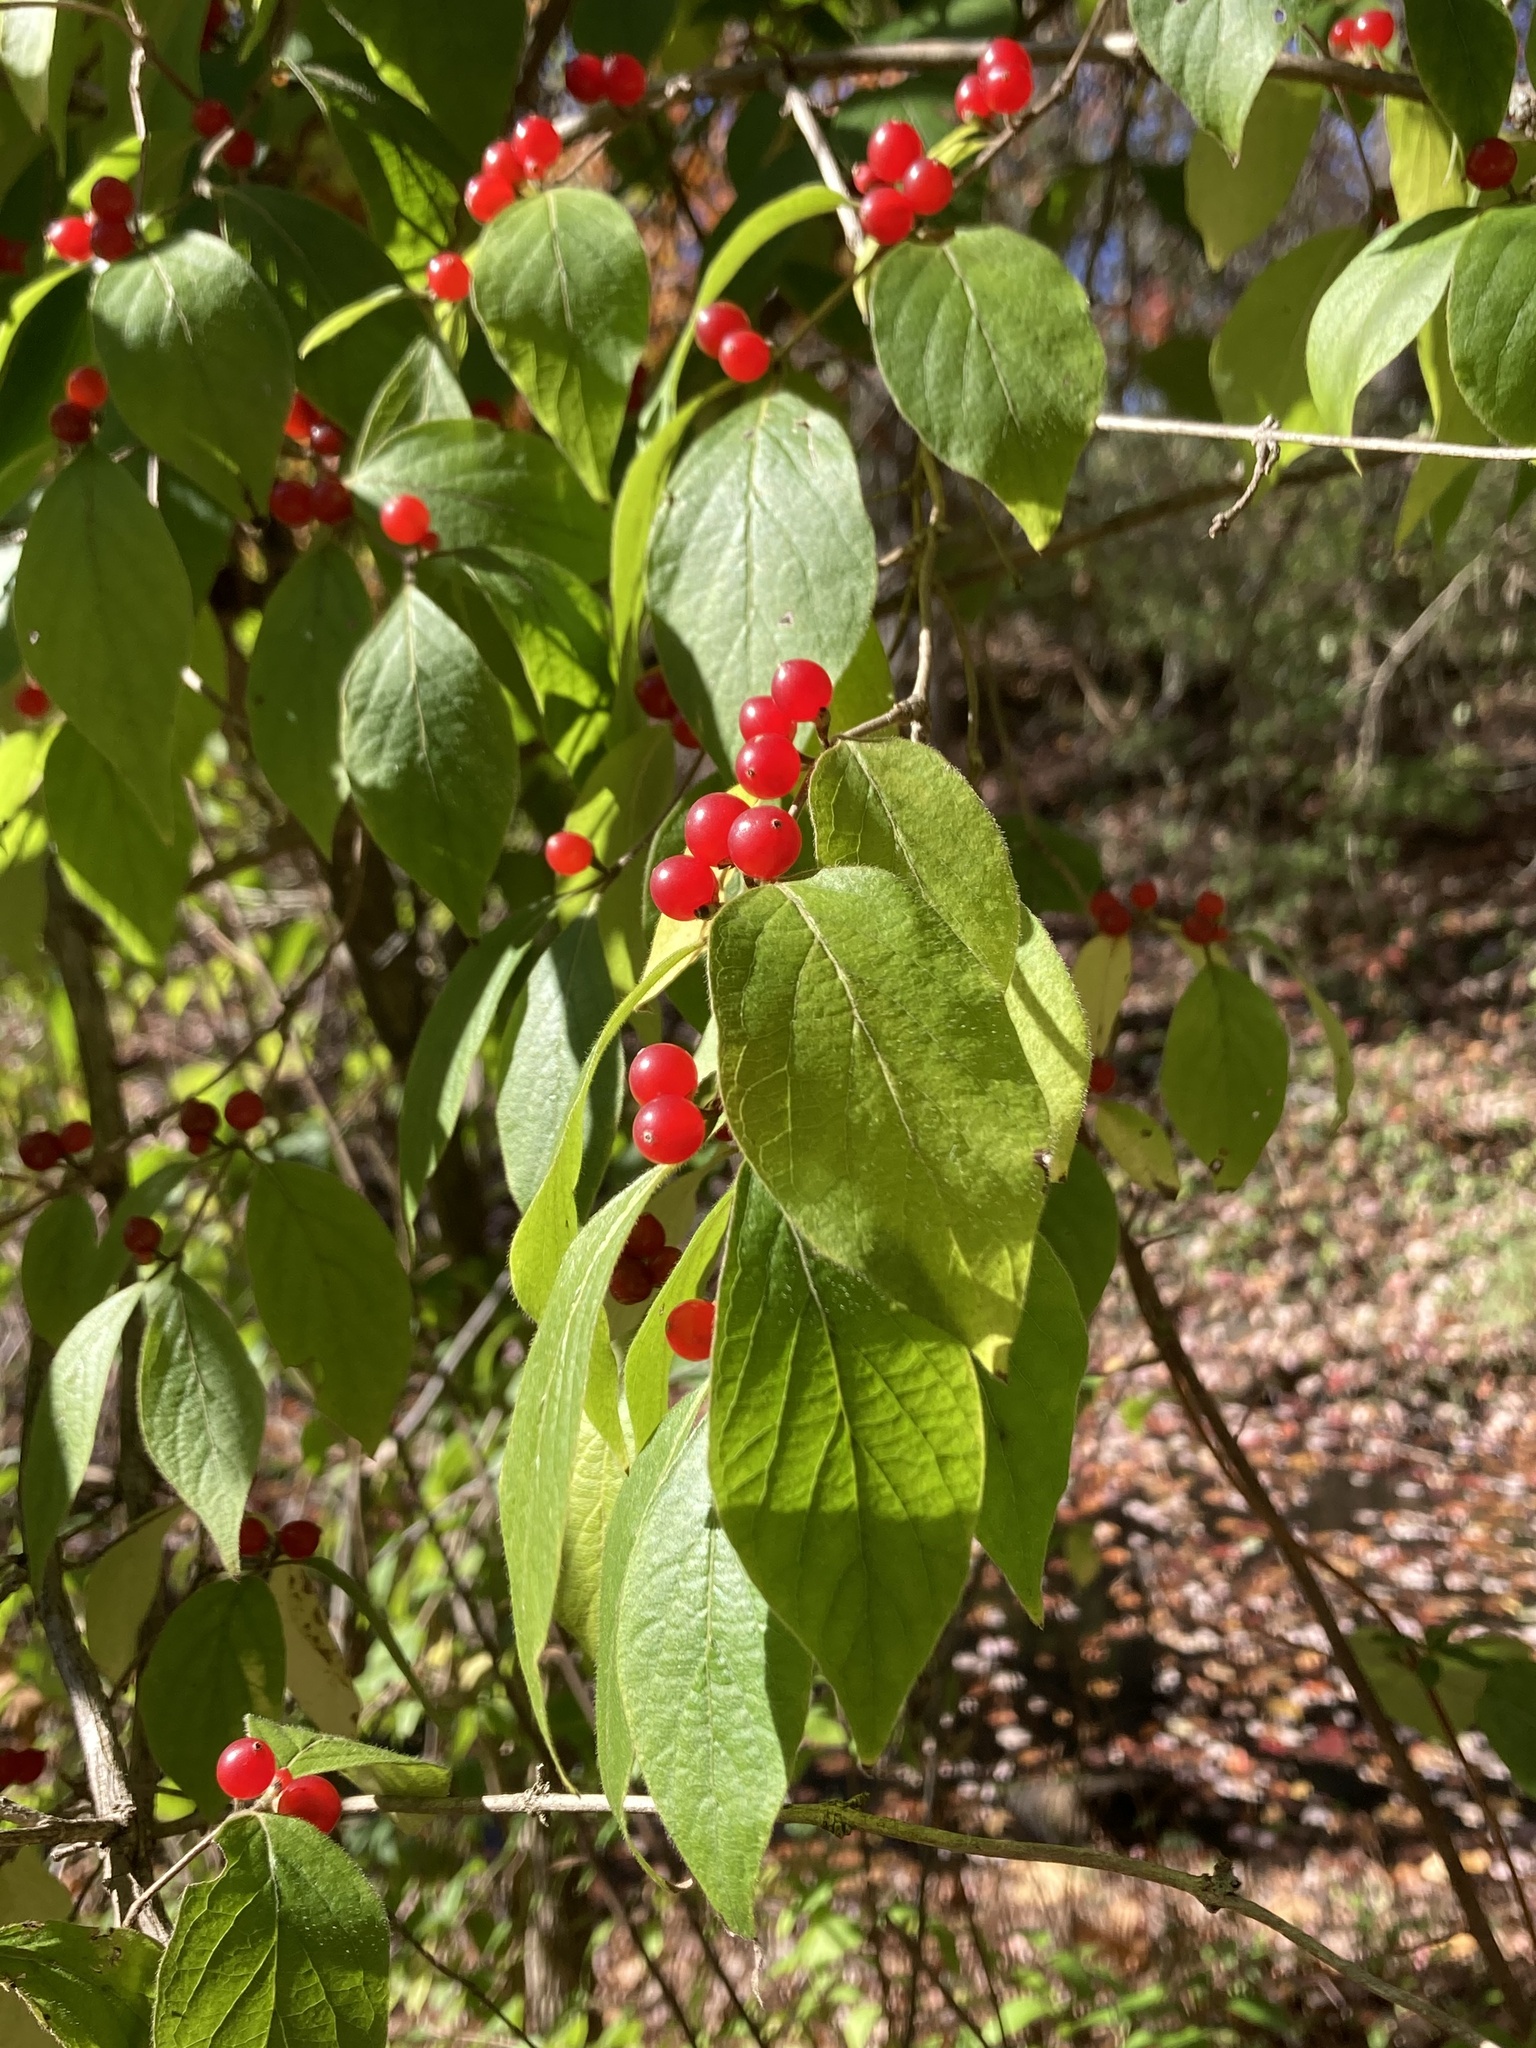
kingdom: Plantae
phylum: Tracheophyta
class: Magnoliopsida
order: Dipsacales
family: Caprifoliaceae
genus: Lonicera
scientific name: Lonicera maackii
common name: Amur honeysuckle
